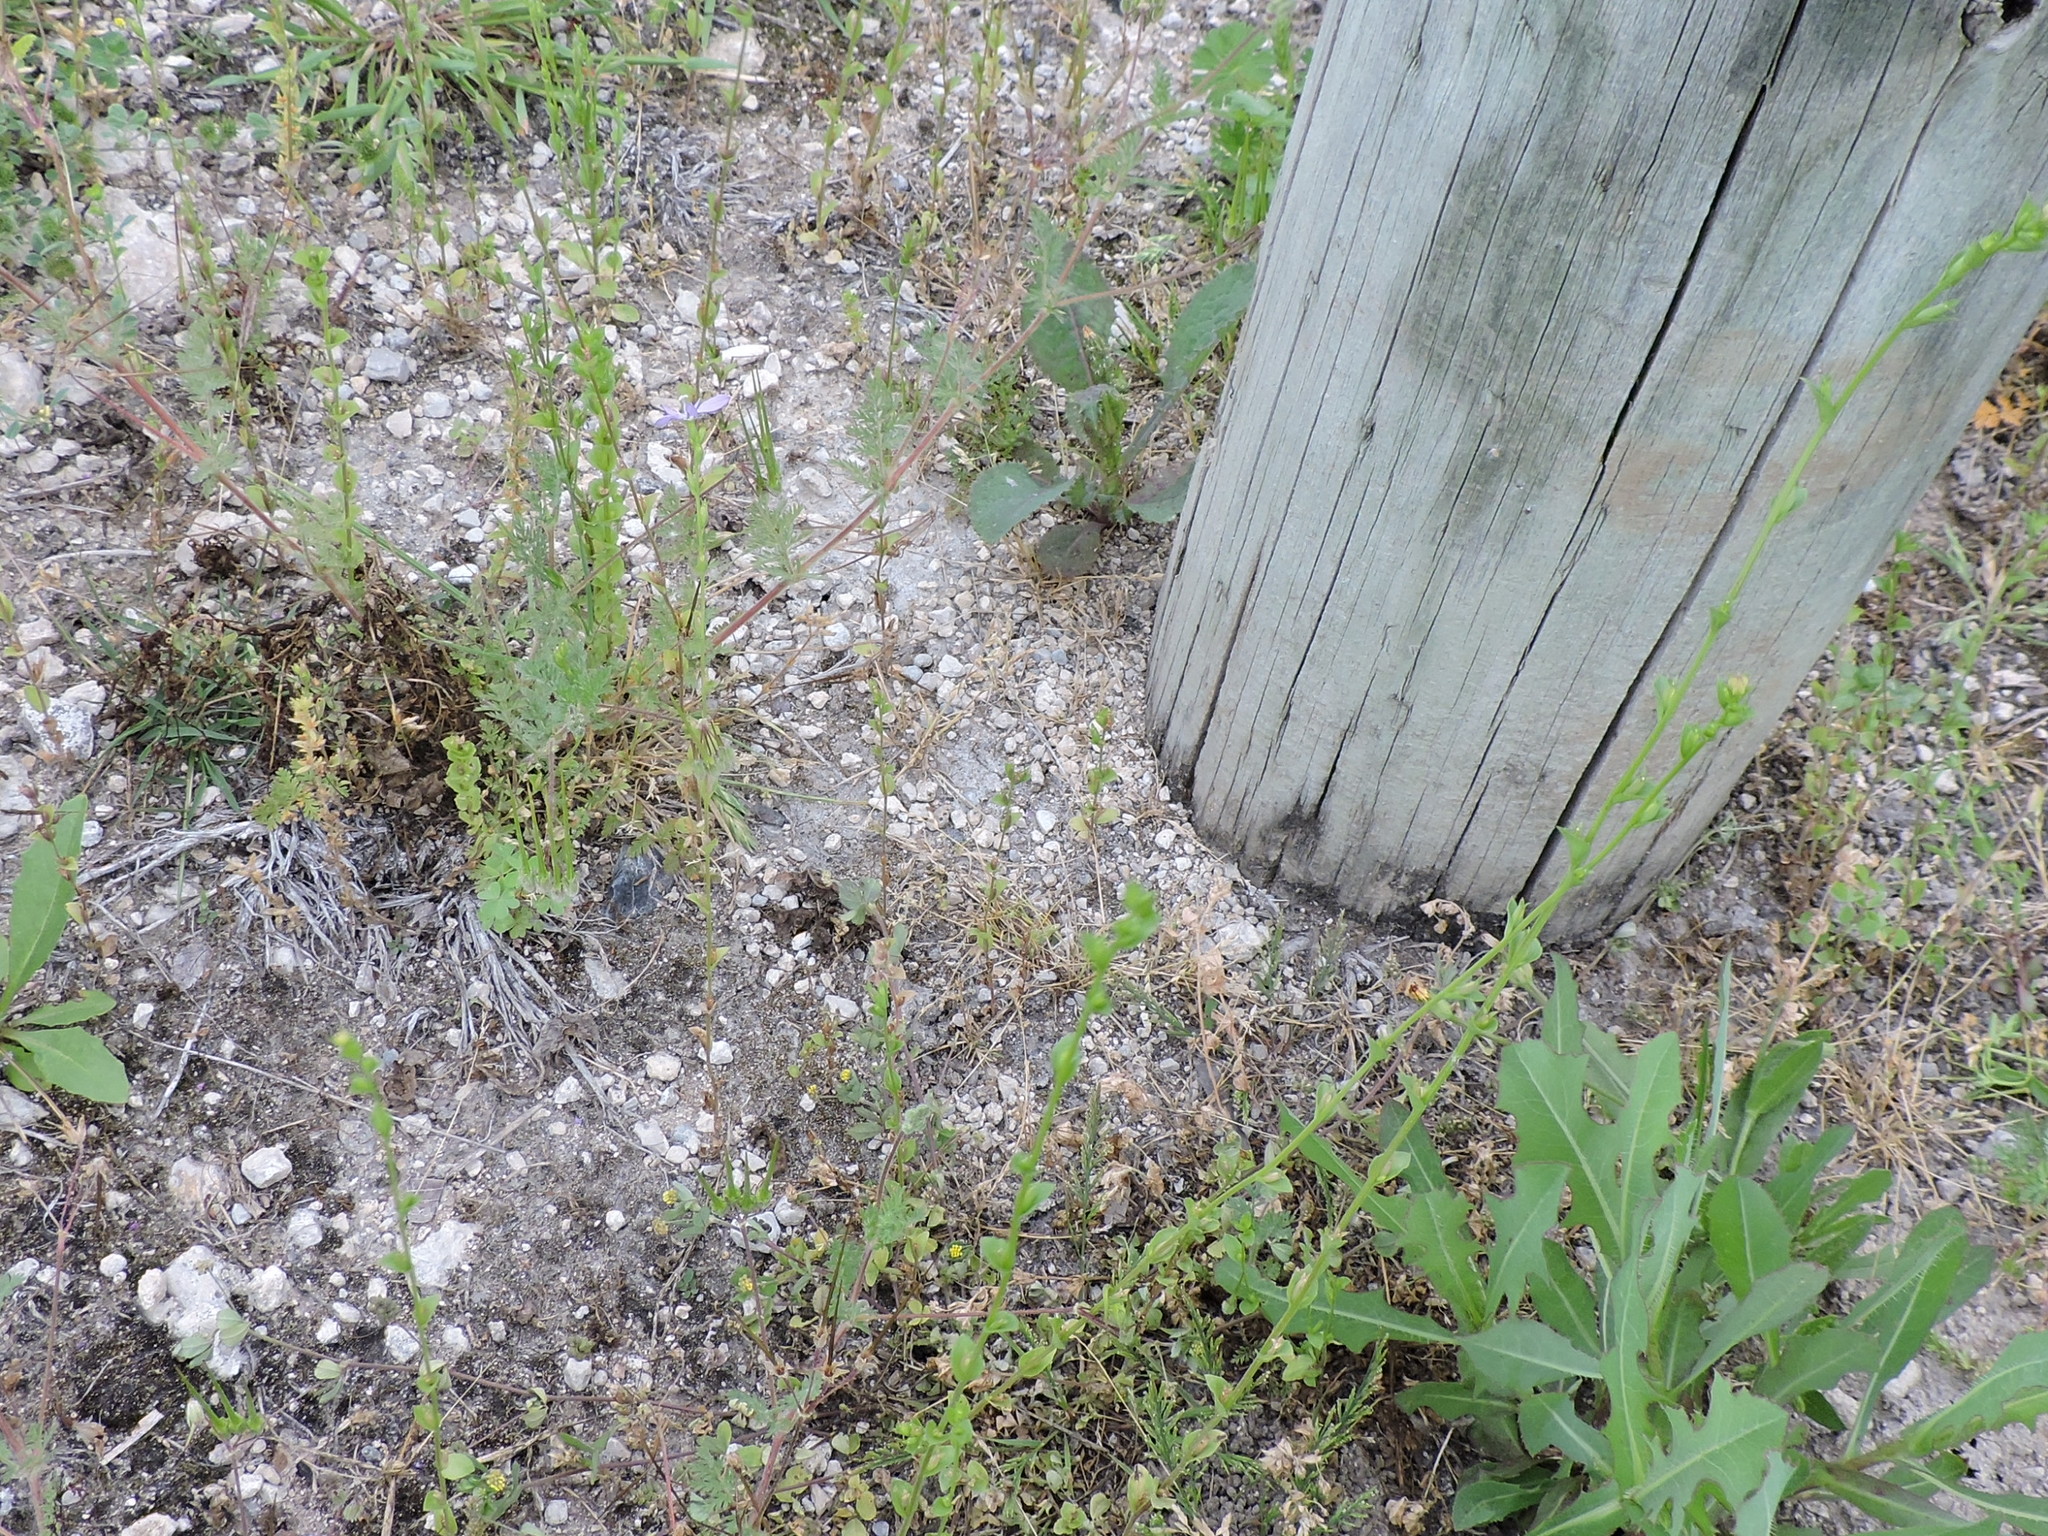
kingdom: Plantae
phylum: Tracheophyta
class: Magnoliopsida
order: Asterales
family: Campanulaceae
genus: Triodanis
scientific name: Triodanis biflora
